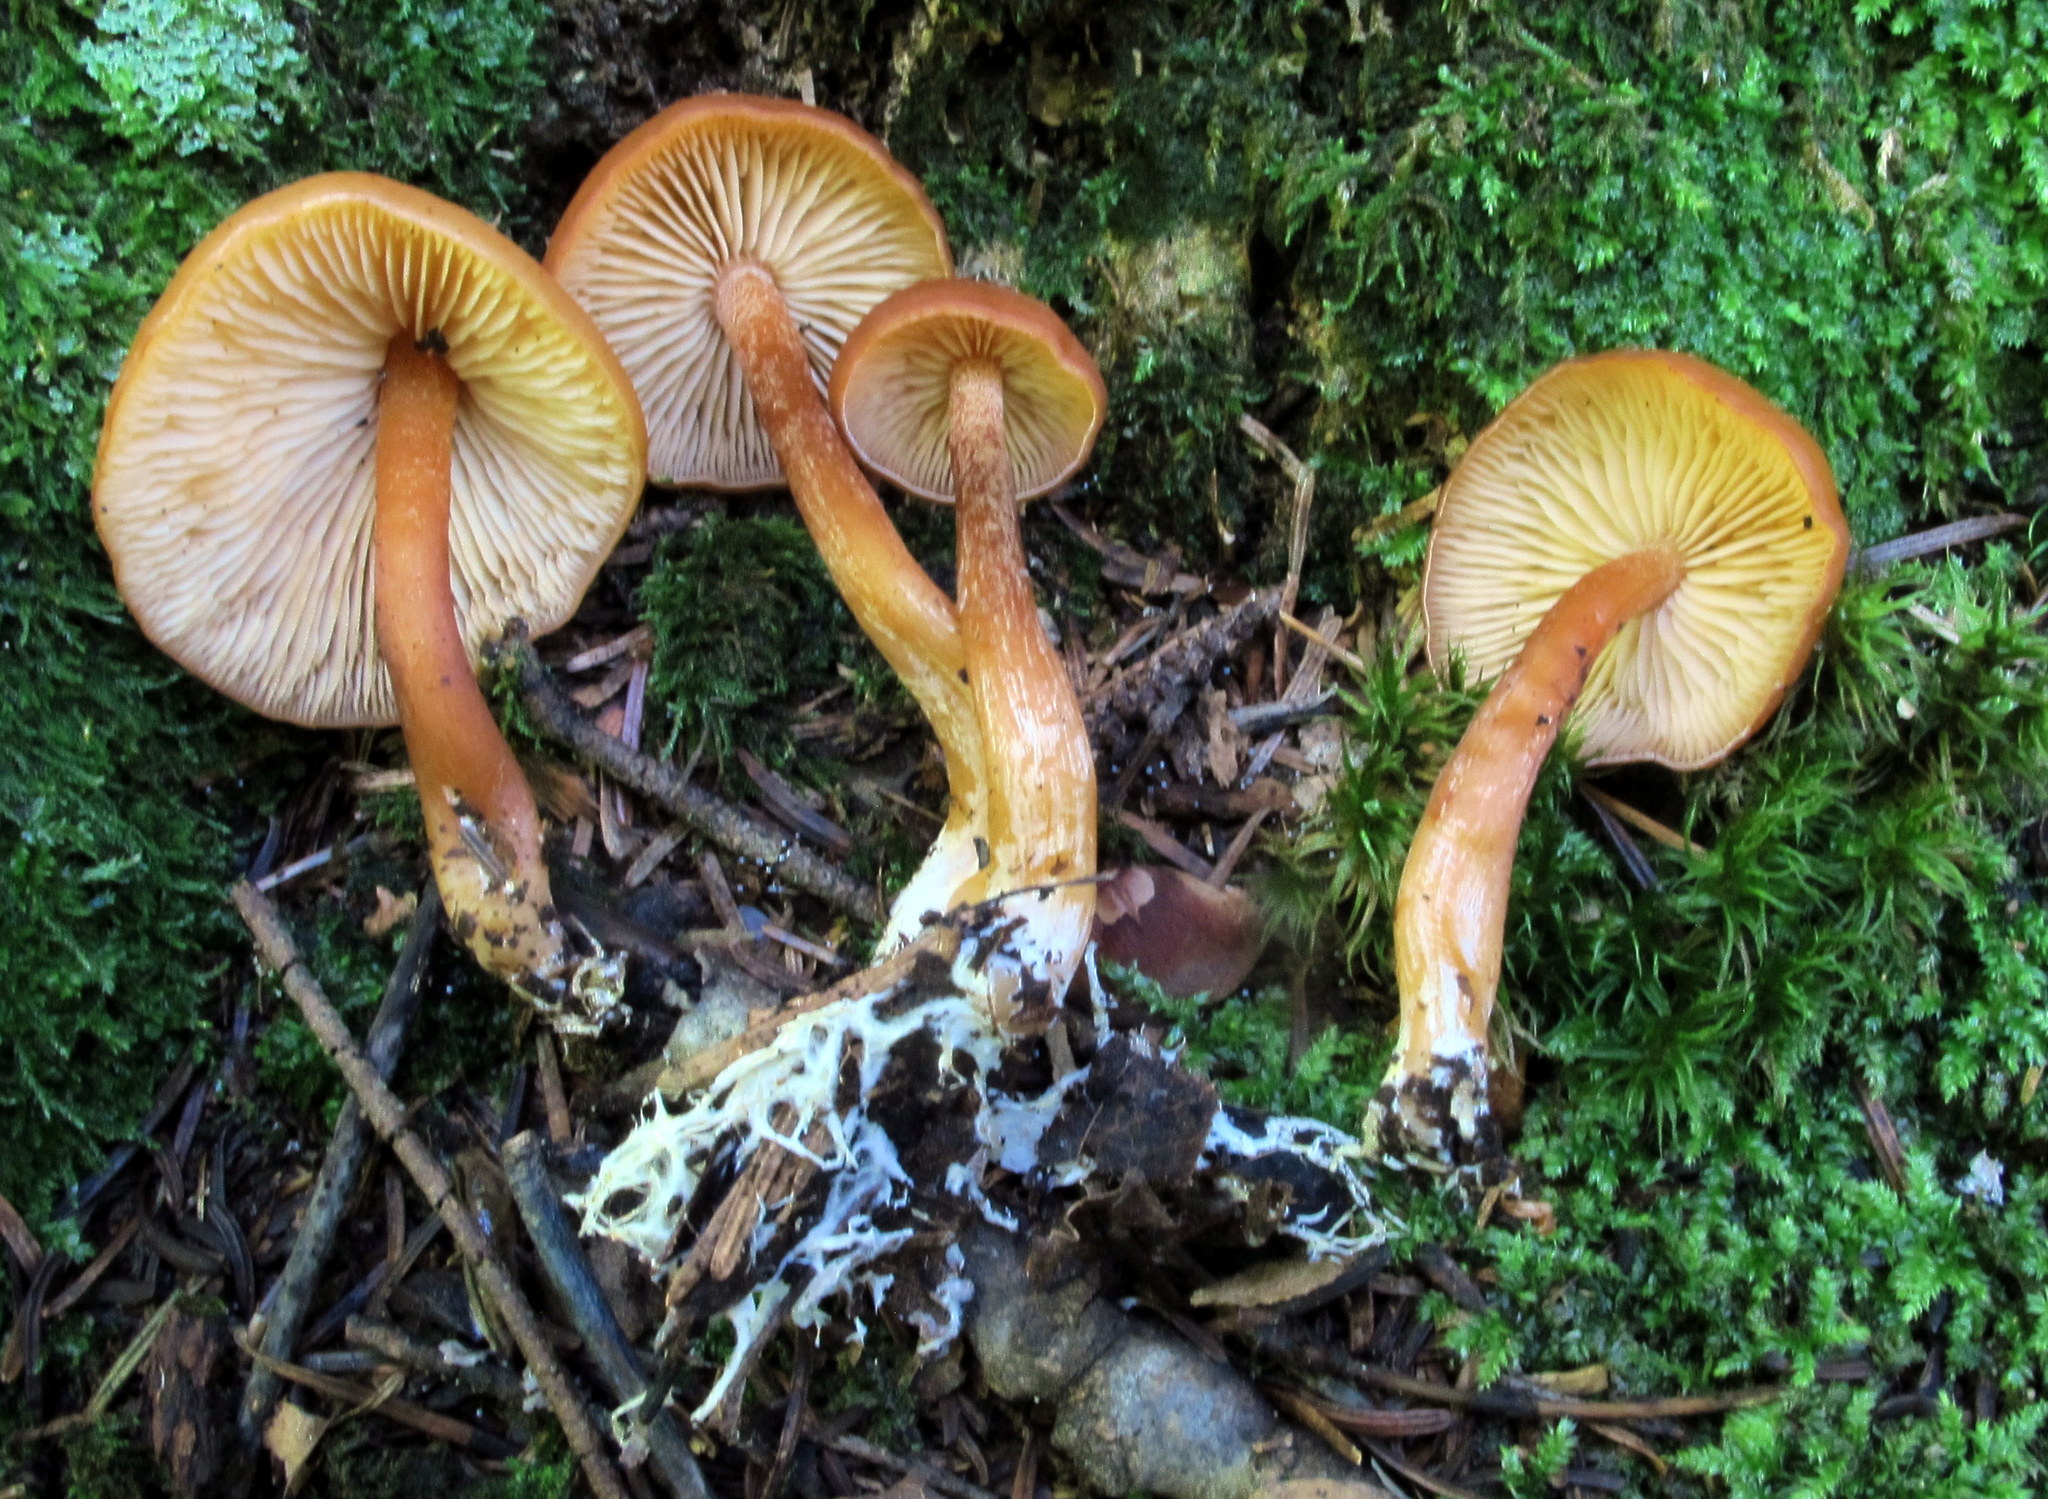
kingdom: Fungi
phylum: Basidiomycota
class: Agaricomycetes
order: Agaricales
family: Entolomataceae
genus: Rhodophana
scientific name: Rhodophana nitellina
